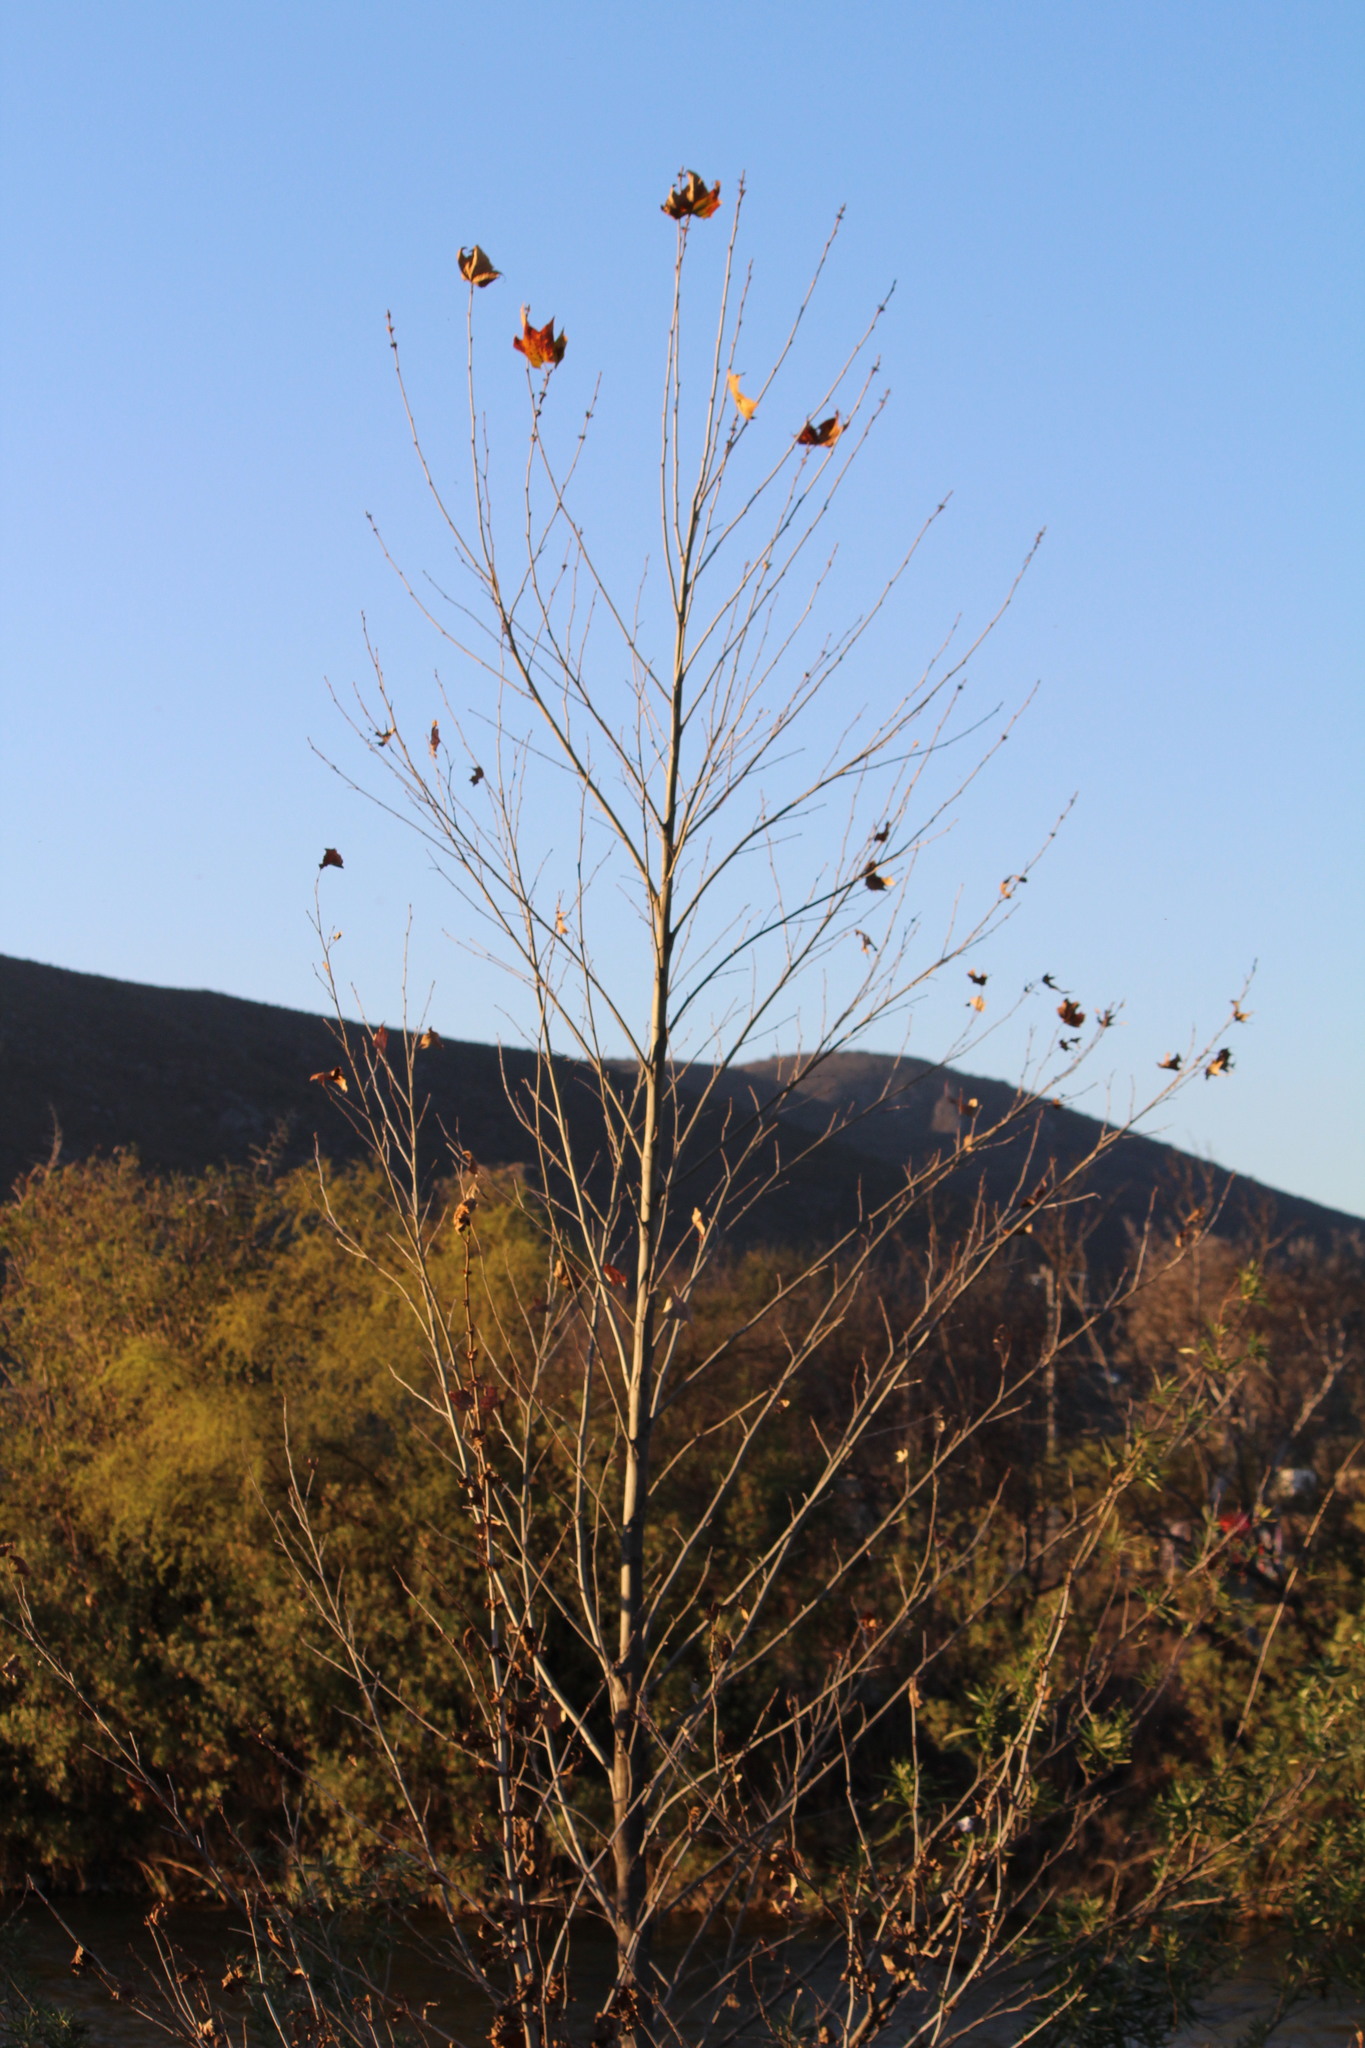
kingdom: Plantae
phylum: Tracheophyta
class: Magnoliopsida
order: Proteales
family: Platanaceae
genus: Platanus
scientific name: Platanus occidentalis
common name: American sycamore
